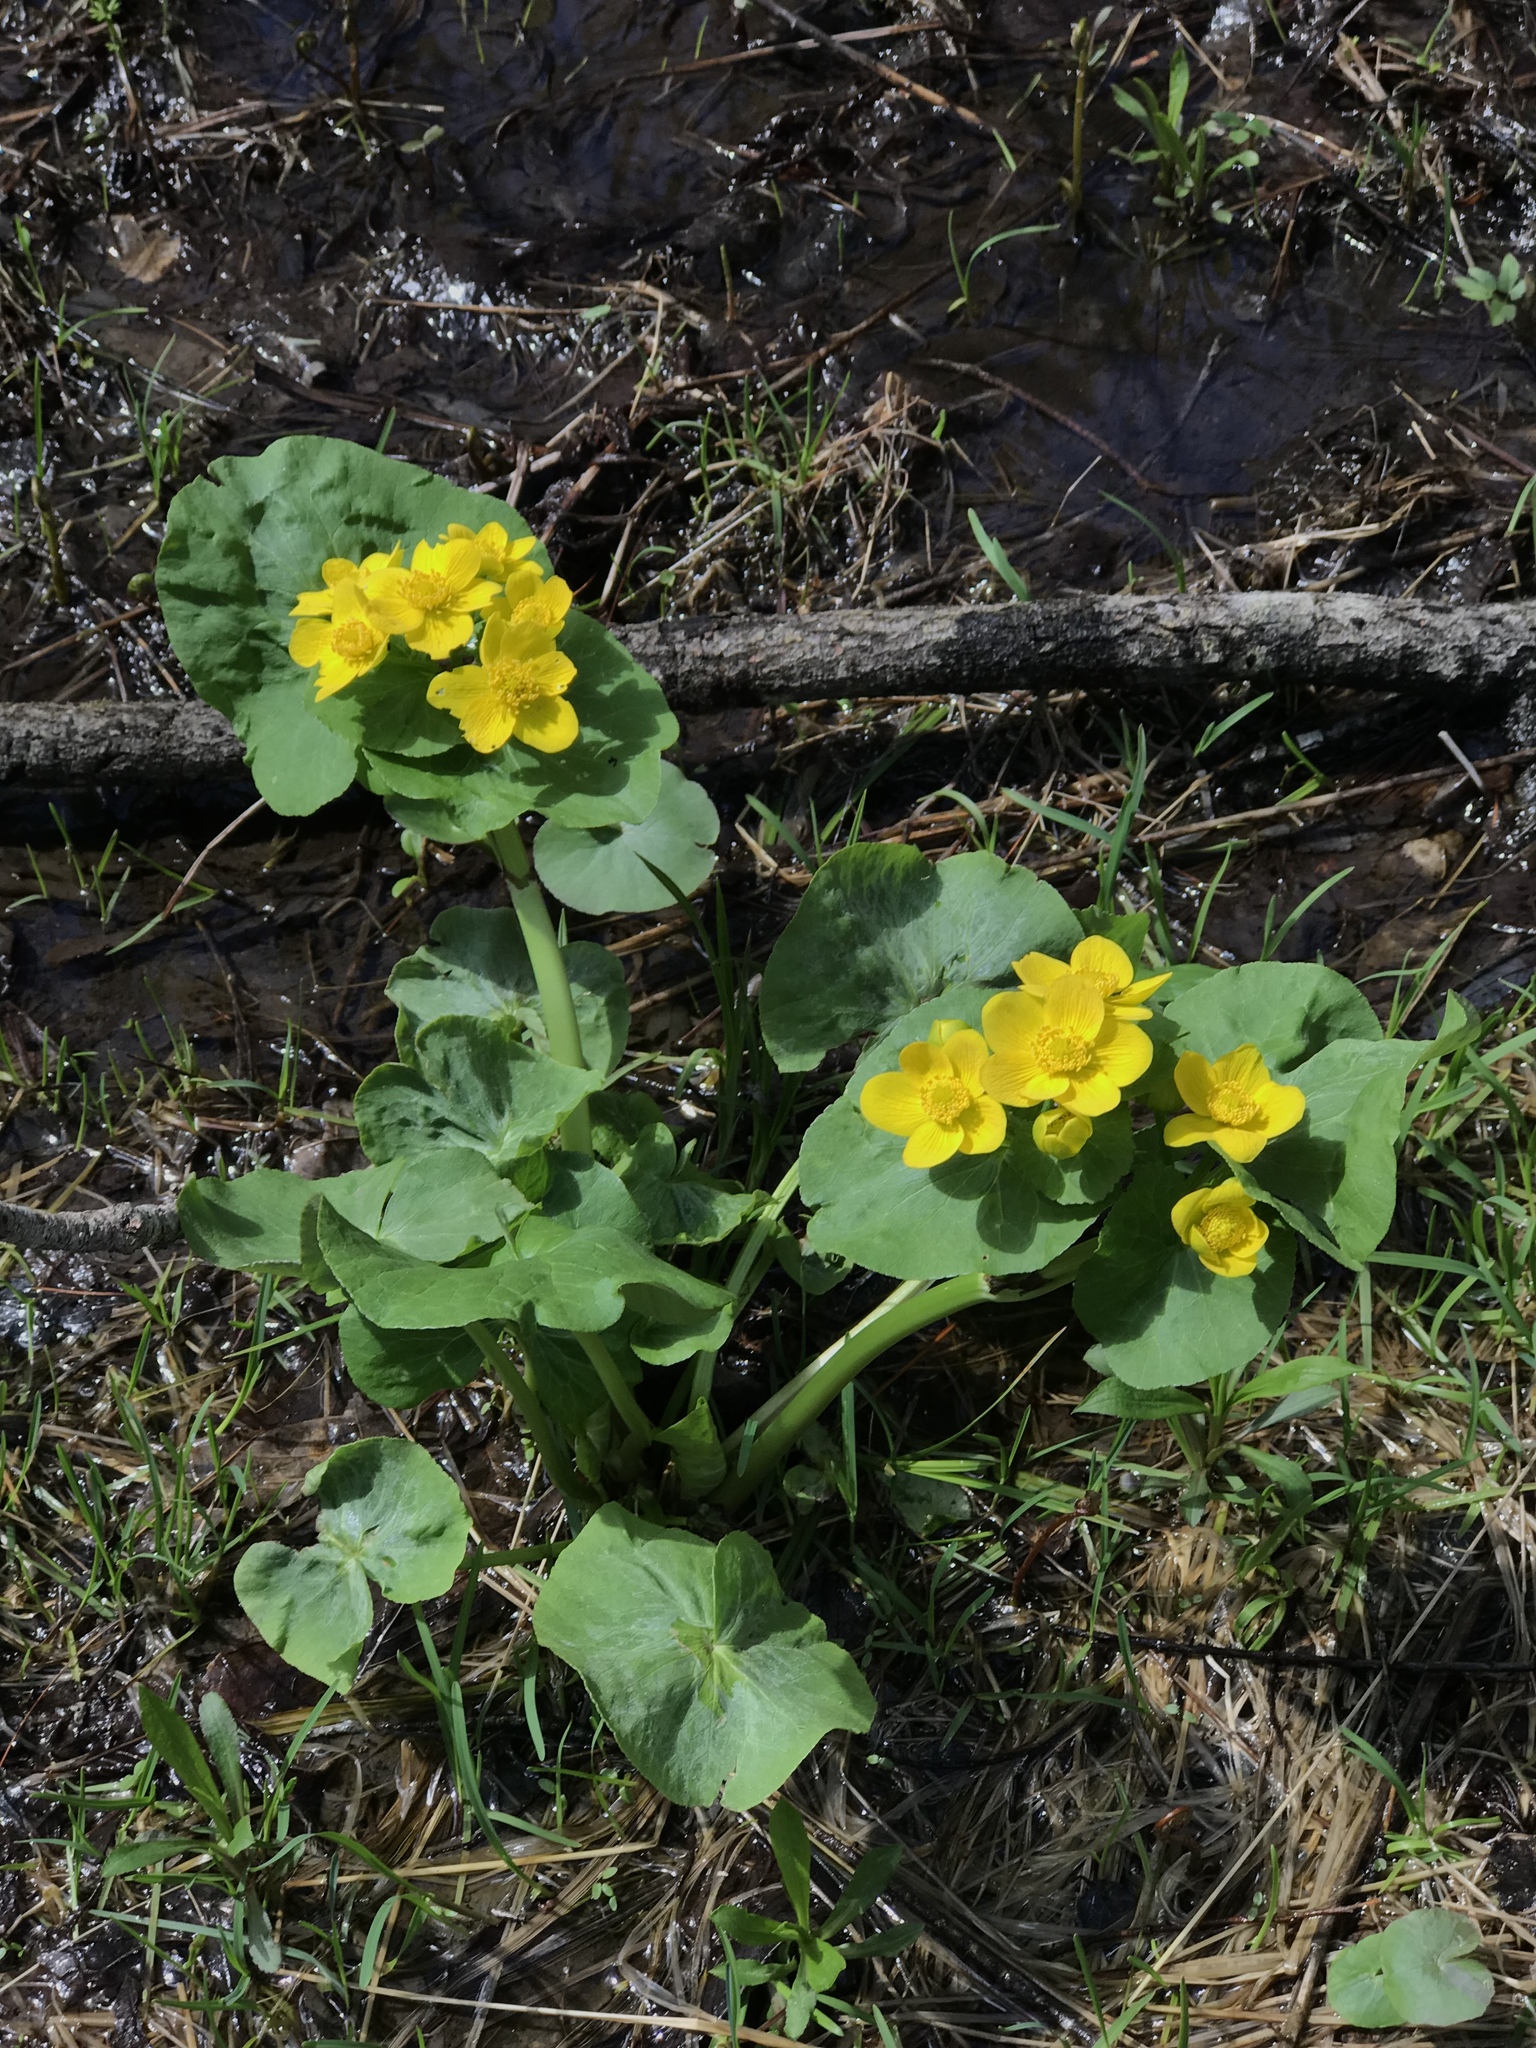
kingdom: Plantae
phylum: Tracheophyta
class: Magnoliopsida
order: Ranunculales
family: Ranunculaceae
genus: Caltha
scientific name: Caltha palustris
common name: Marsh marigold
